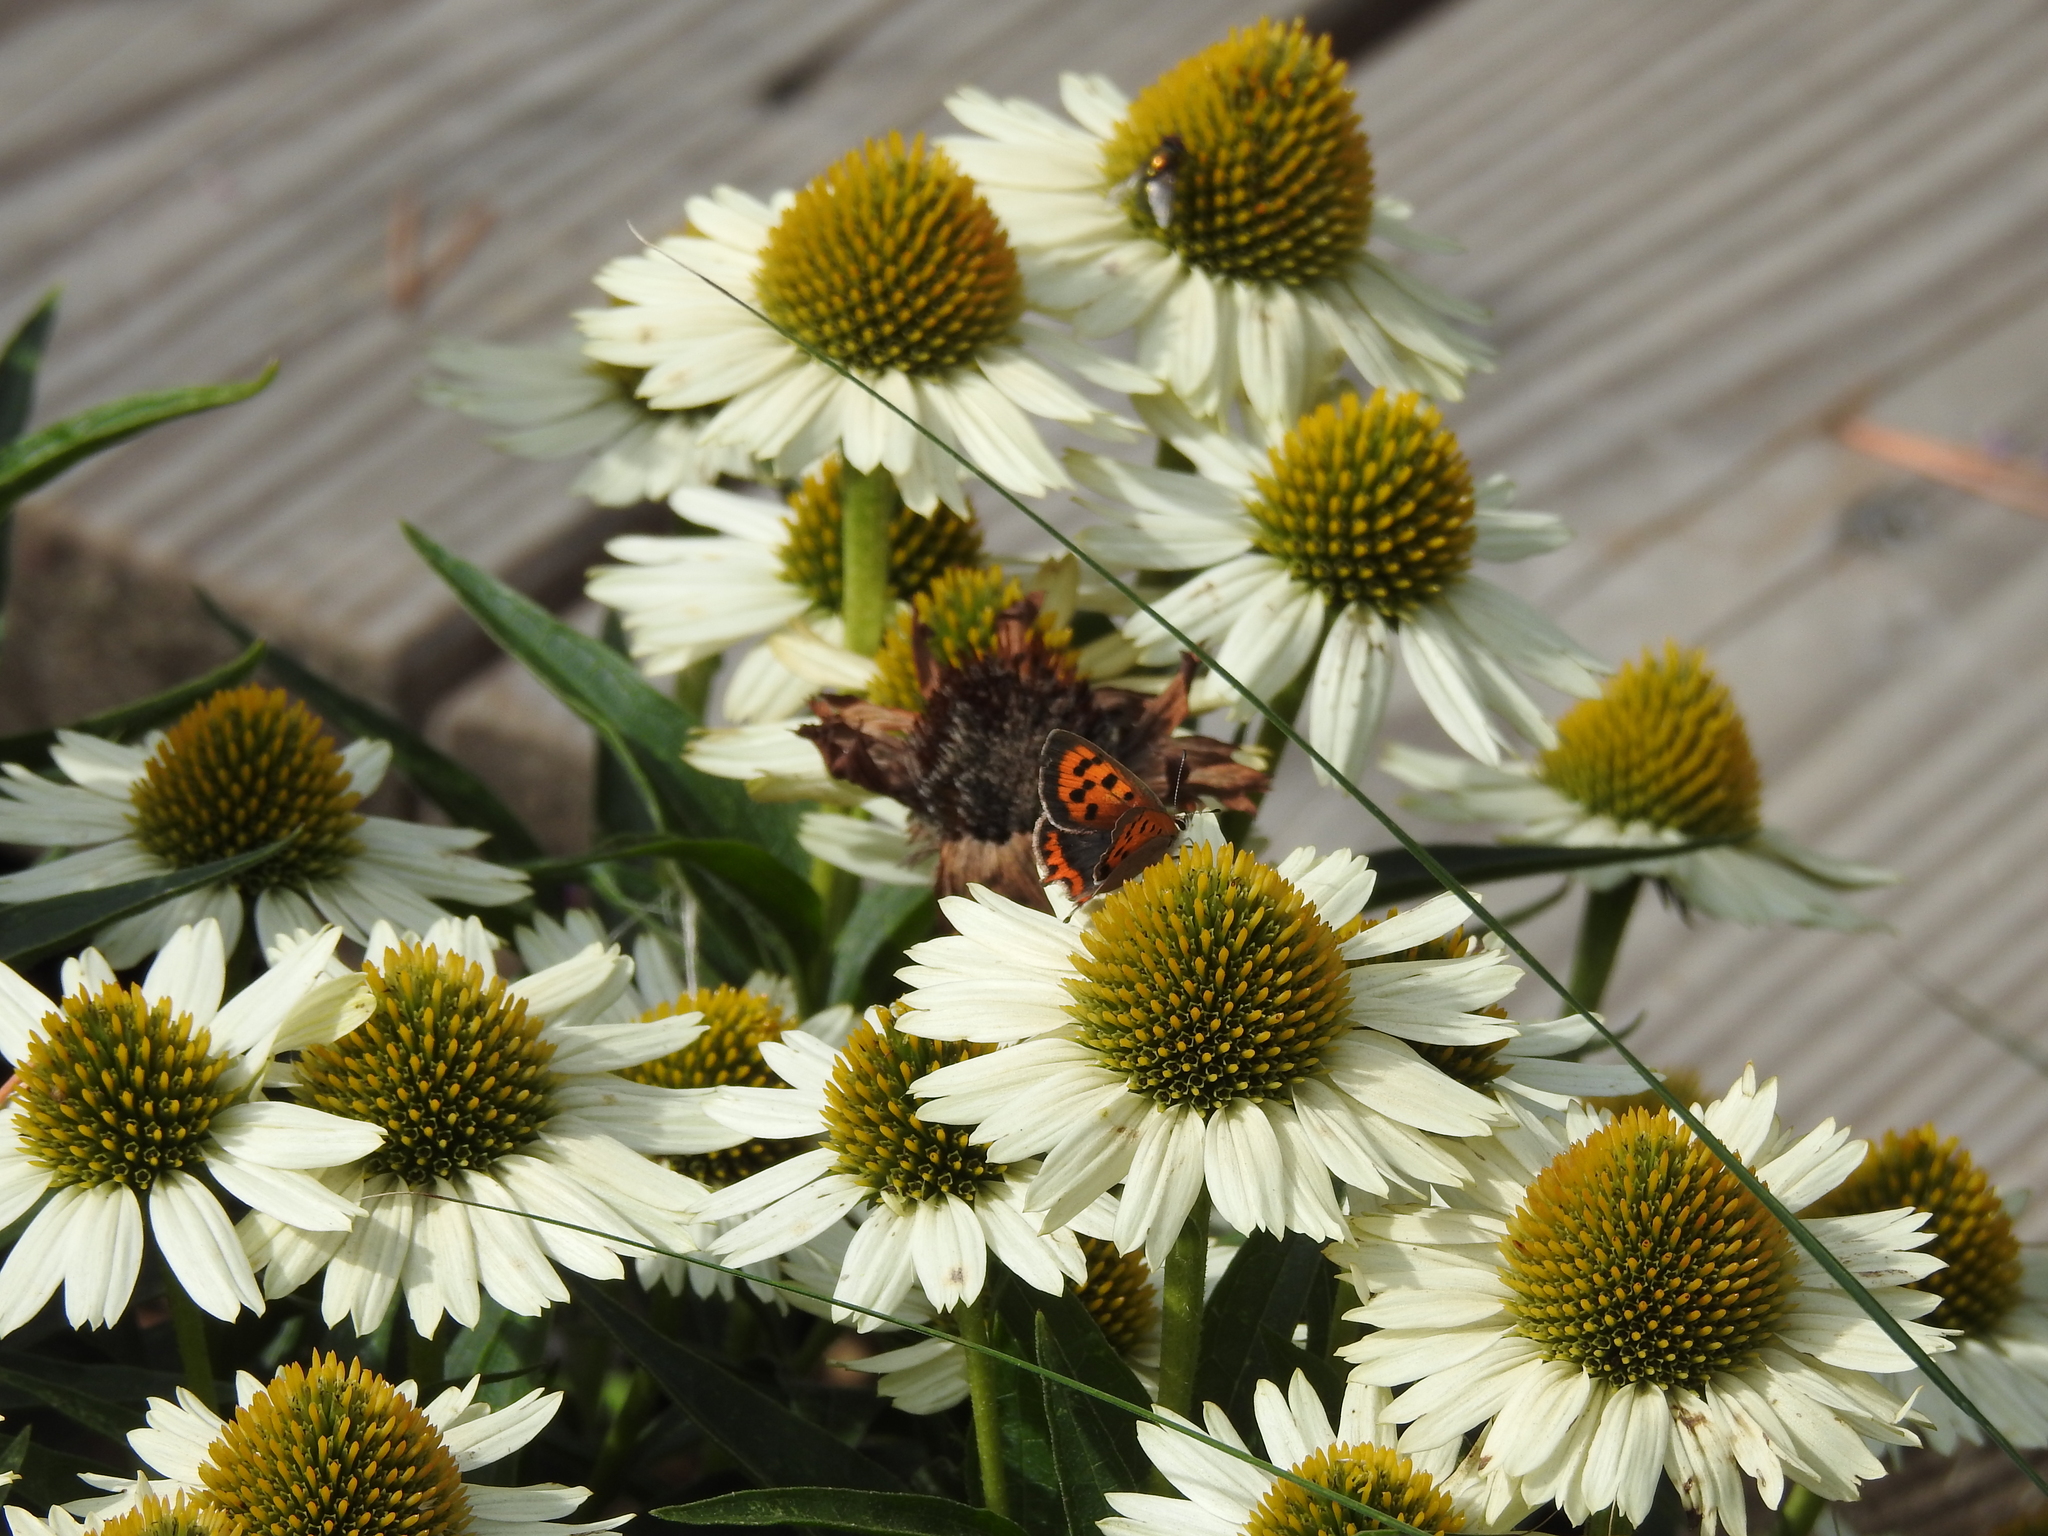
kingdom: Animalia
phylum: Arthropoda
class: Insecta
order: Lepidoptera
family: Lycaenidae
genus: Lycaena
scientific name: Lycaena phlaeas
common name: Small copper
